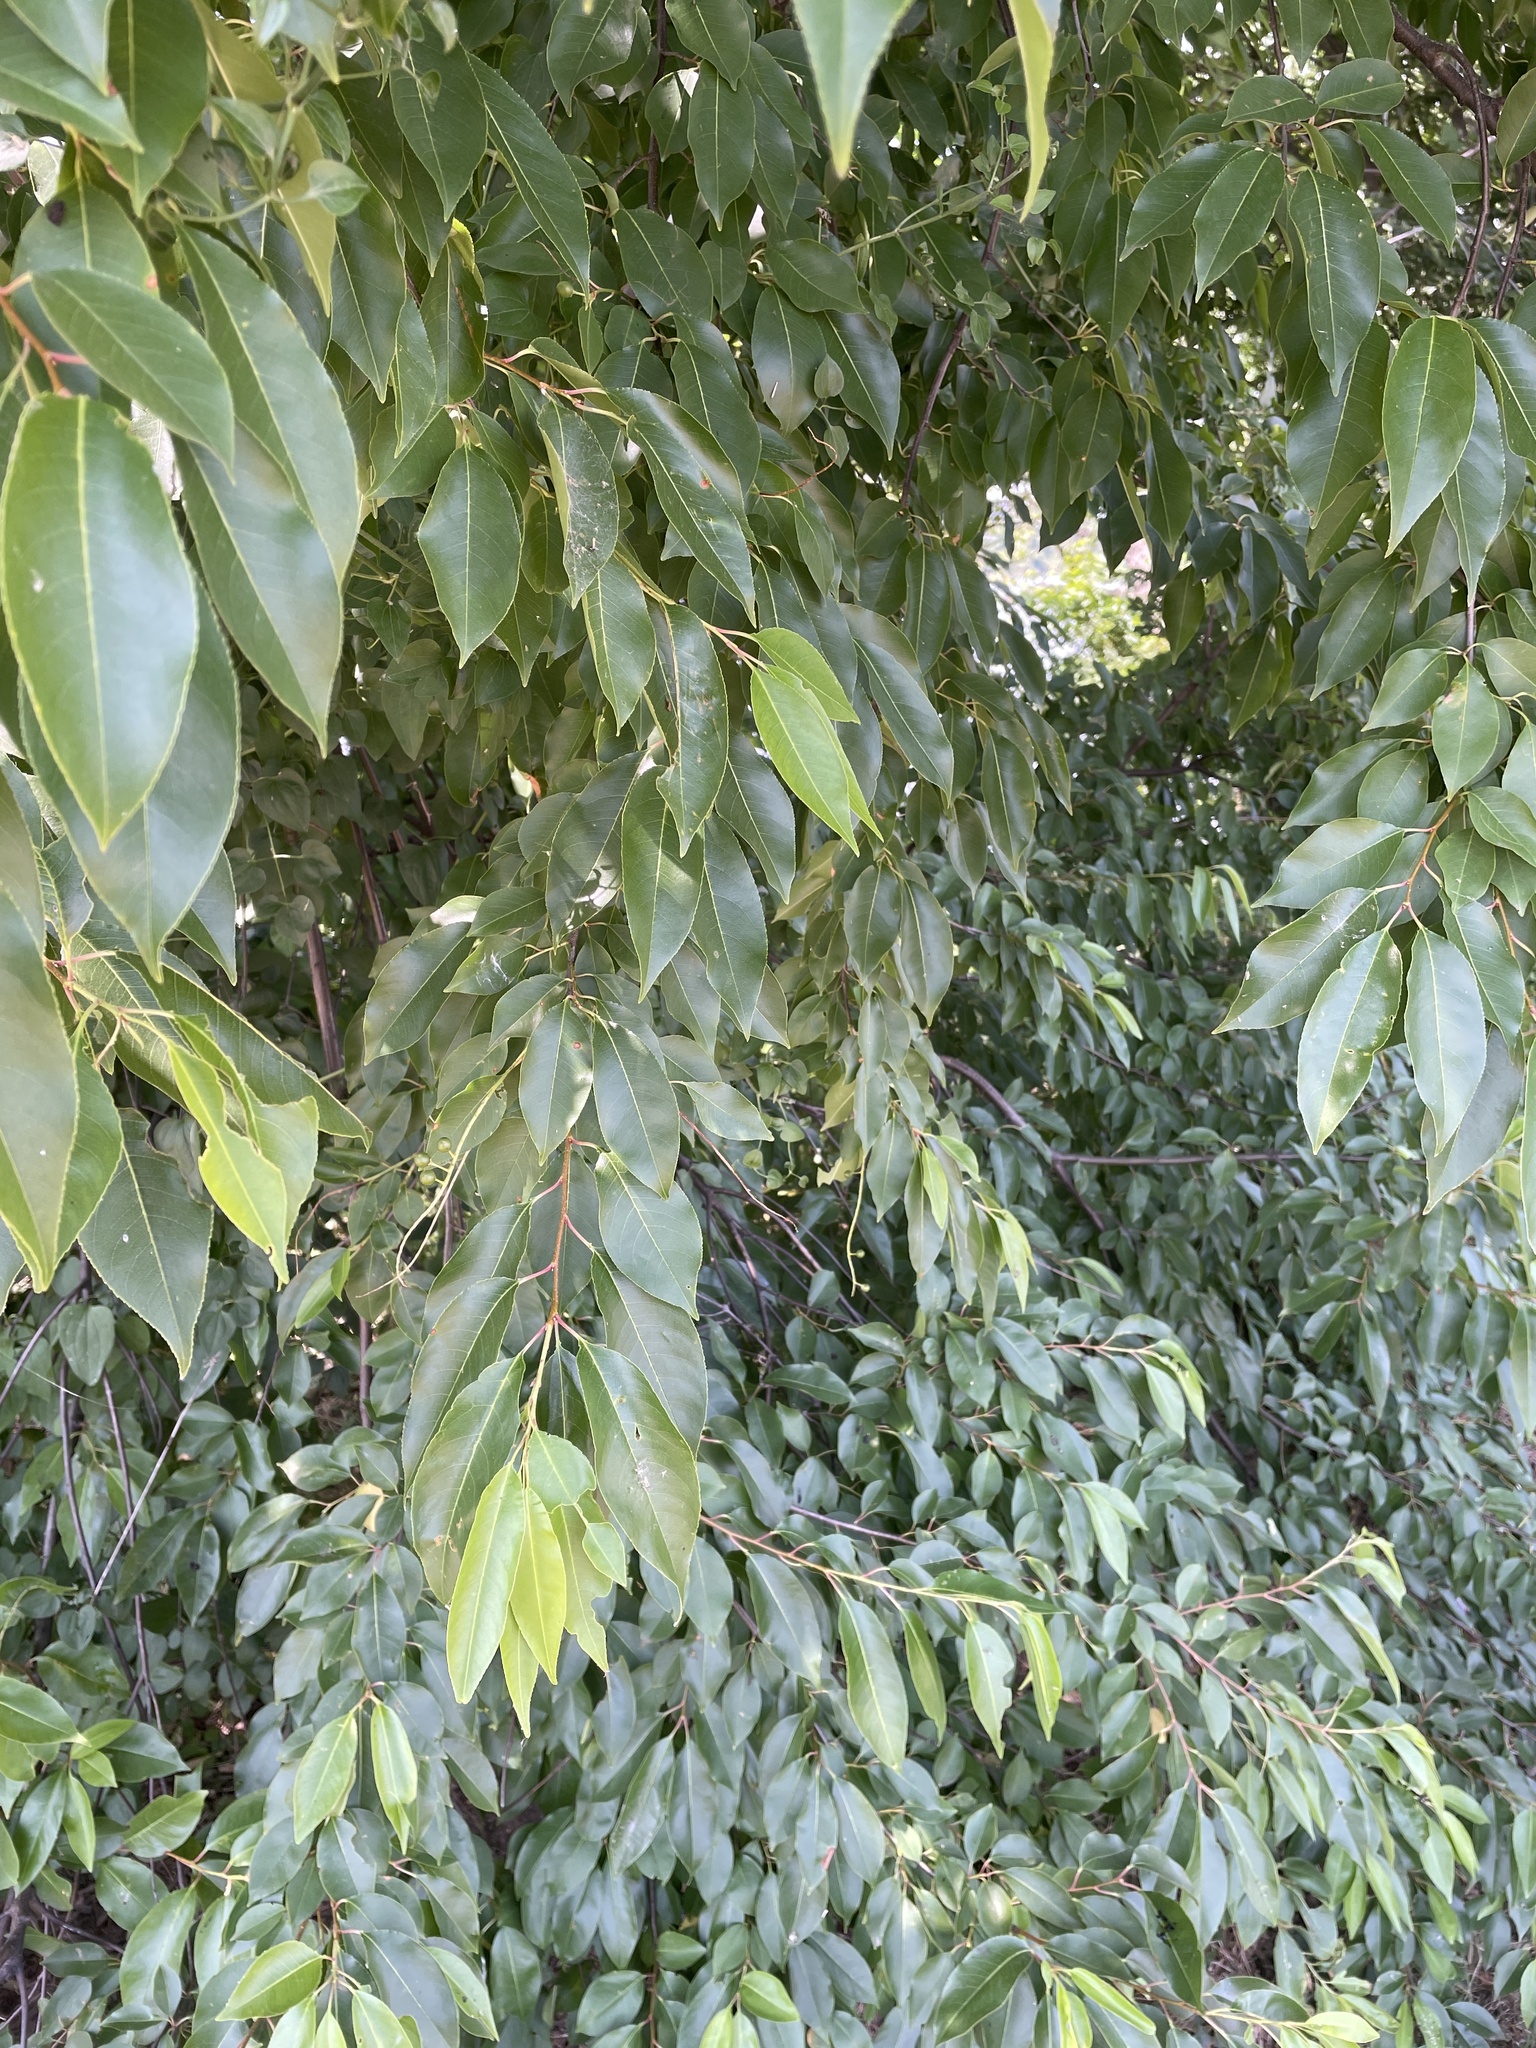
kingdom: Plantae
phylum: Tracheophyta
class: Magnoliopsida
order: Rosales
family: Rosaceae
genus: Prunus
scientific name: Prunus serotina
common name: Black cherry
